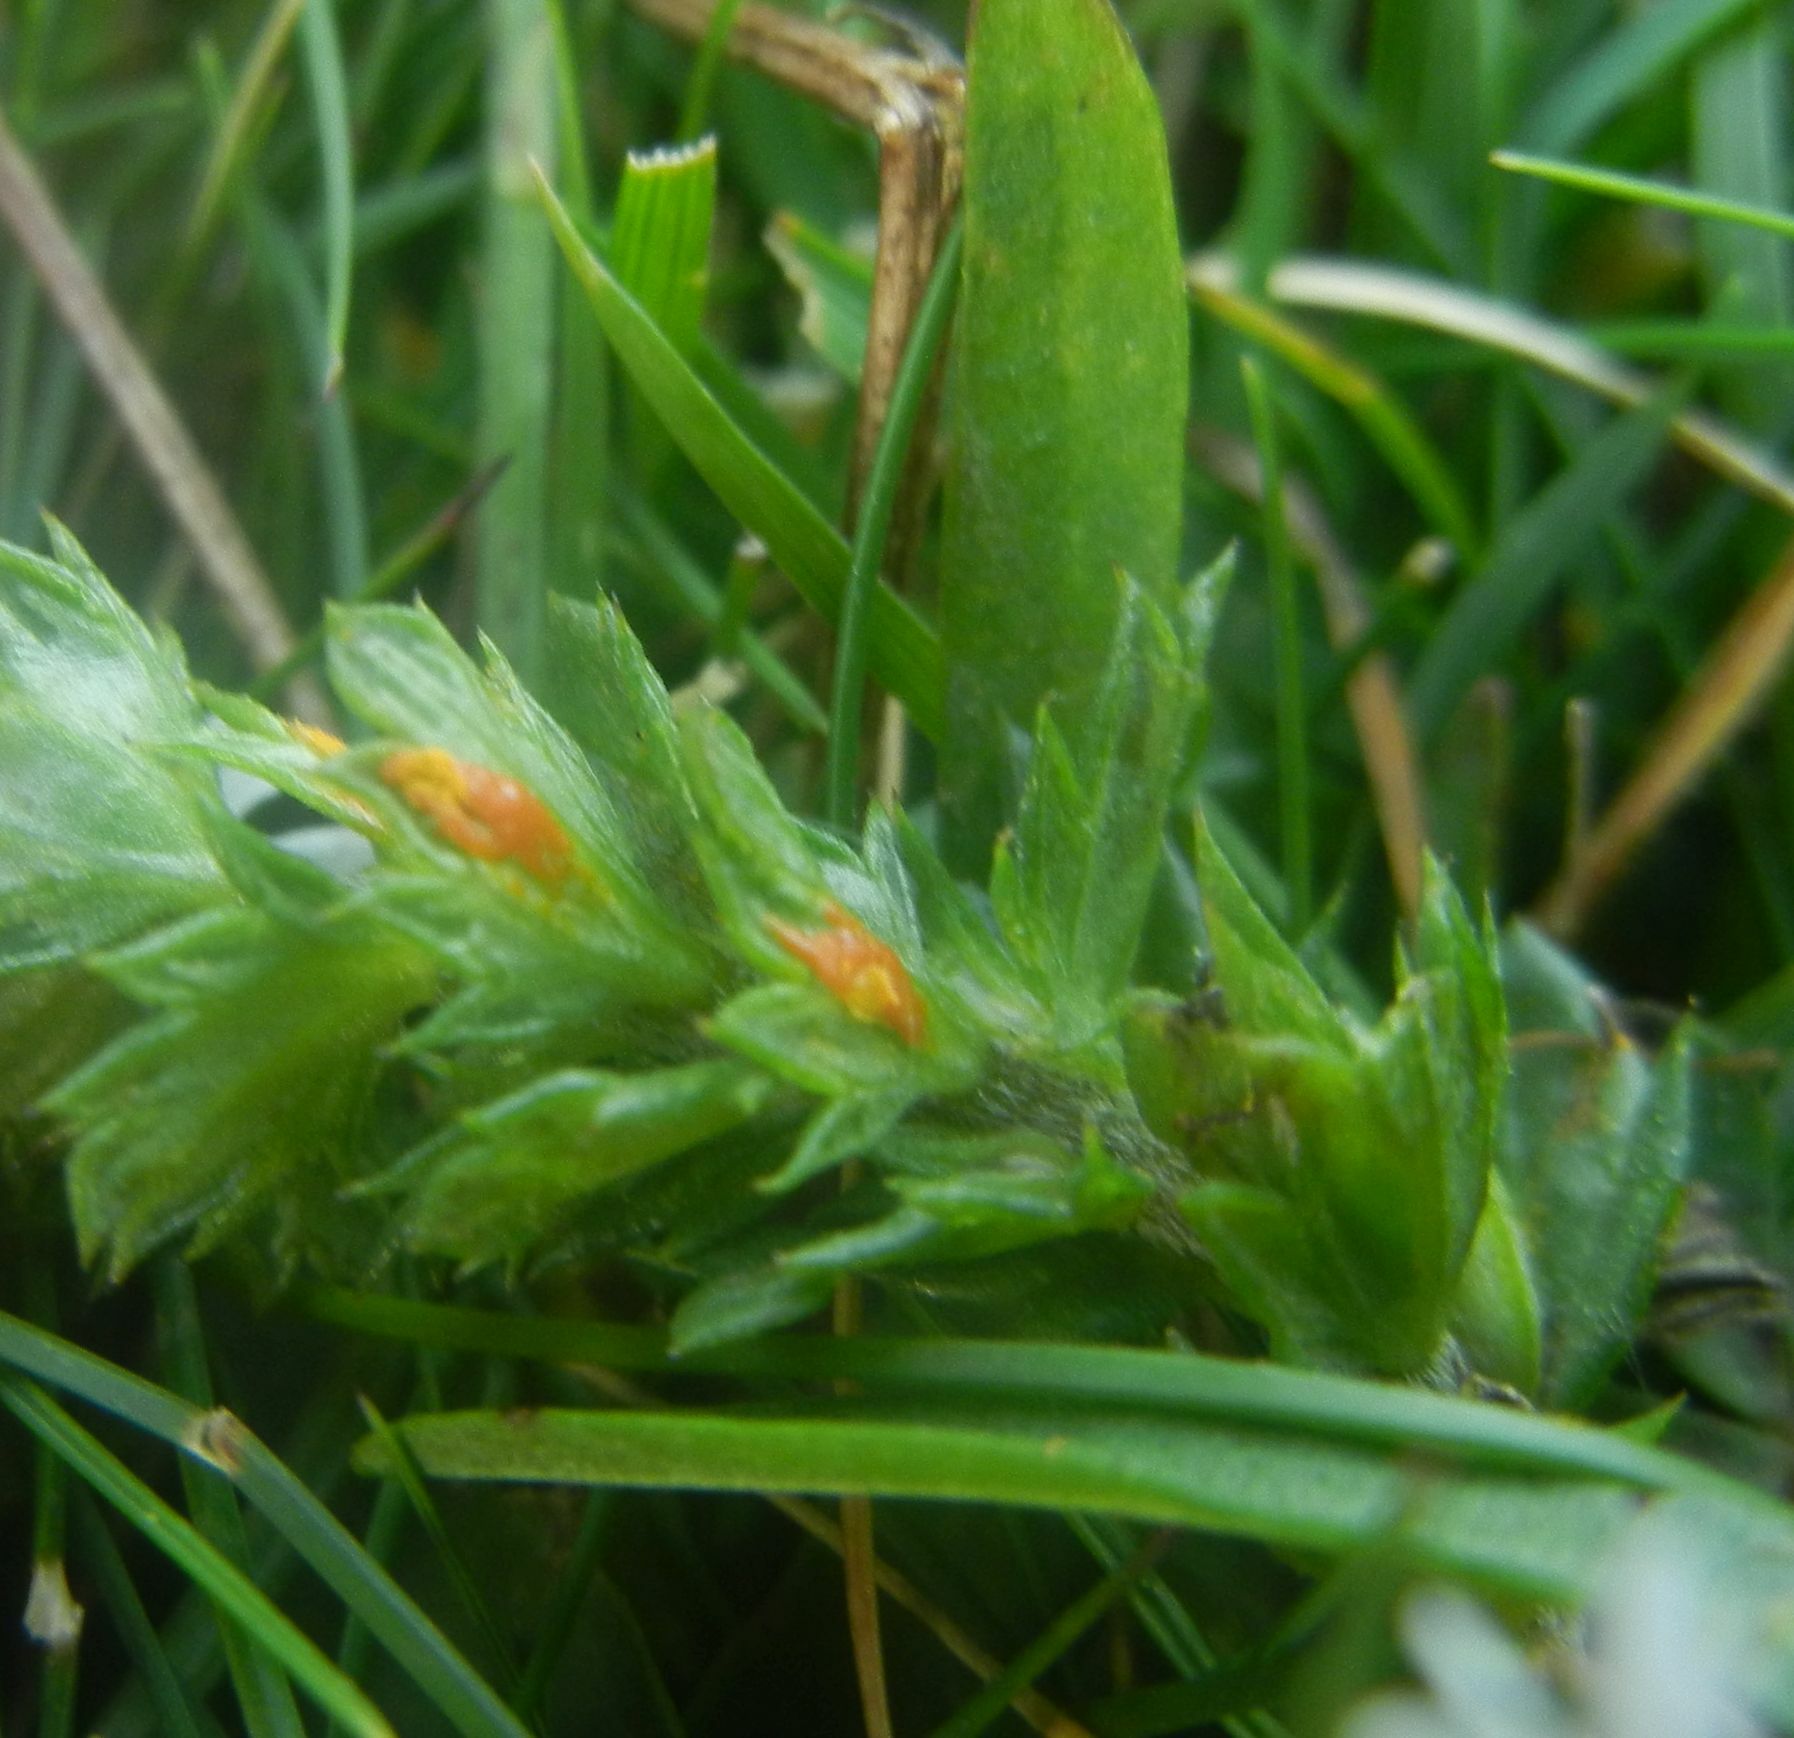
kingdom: Fungi
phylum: Basidiomycota
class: Pucciniomycetes
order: Pucciniales
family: Coleosporiaceae
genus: Coleosporium
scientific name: Coleosporium euphrasiae
